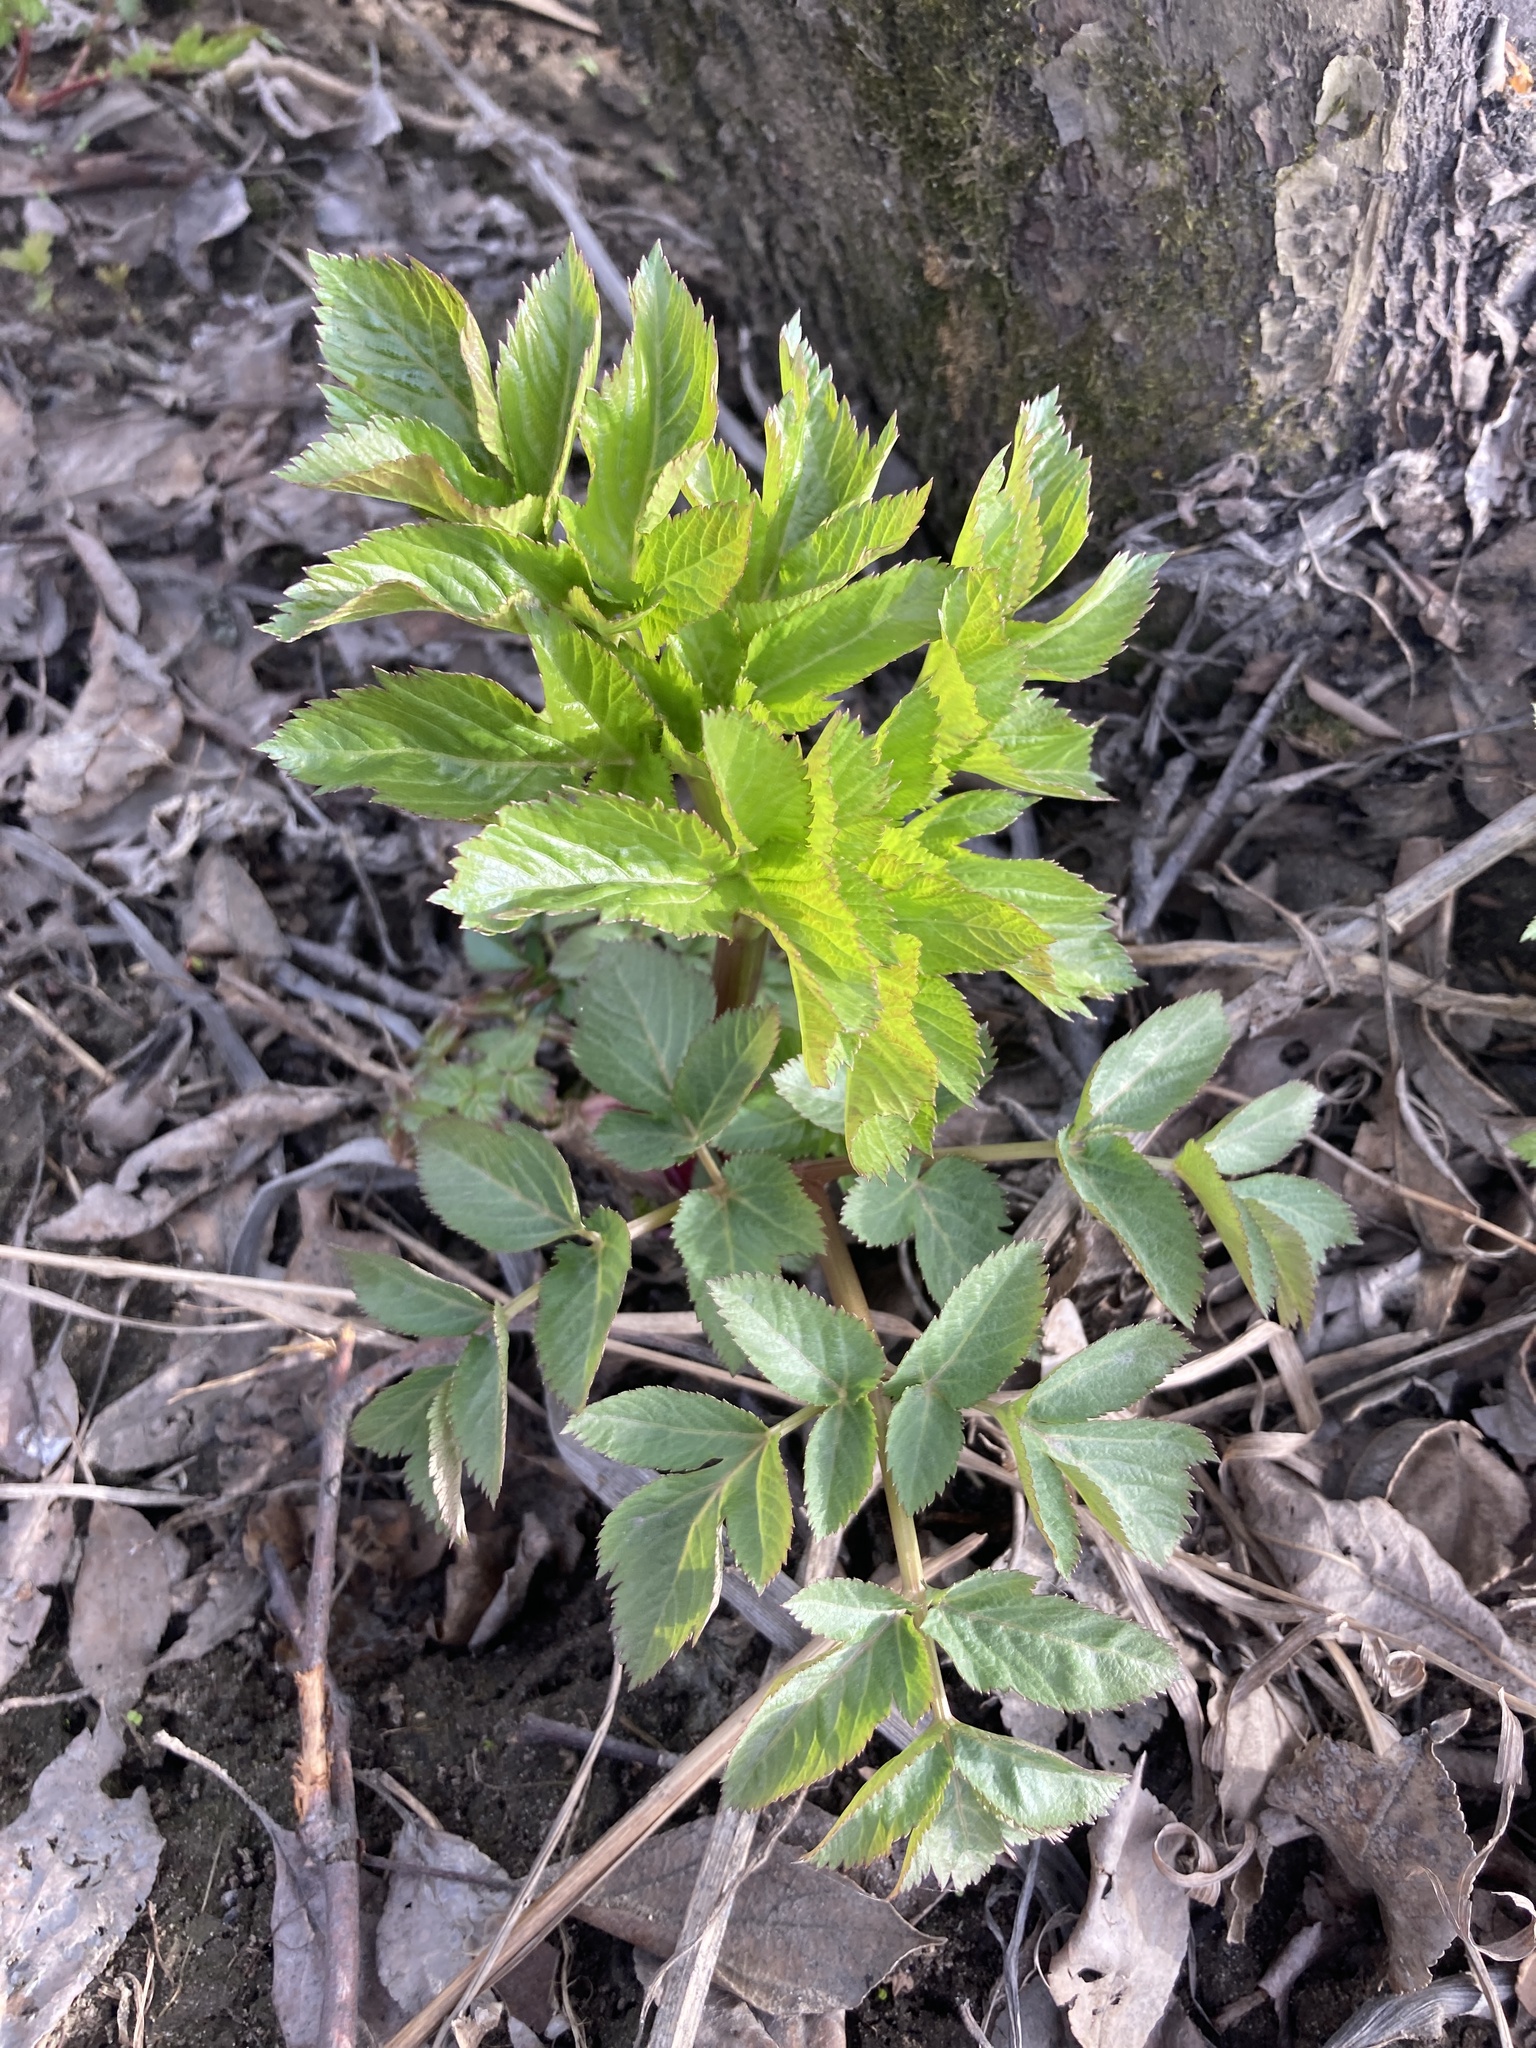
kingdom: Plantae
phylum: Tracheophyta
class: Magnoliopsida
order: Apiales
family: Apiaceae
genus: Angelica
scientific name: Angelica archangelica
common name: Garden angelica
